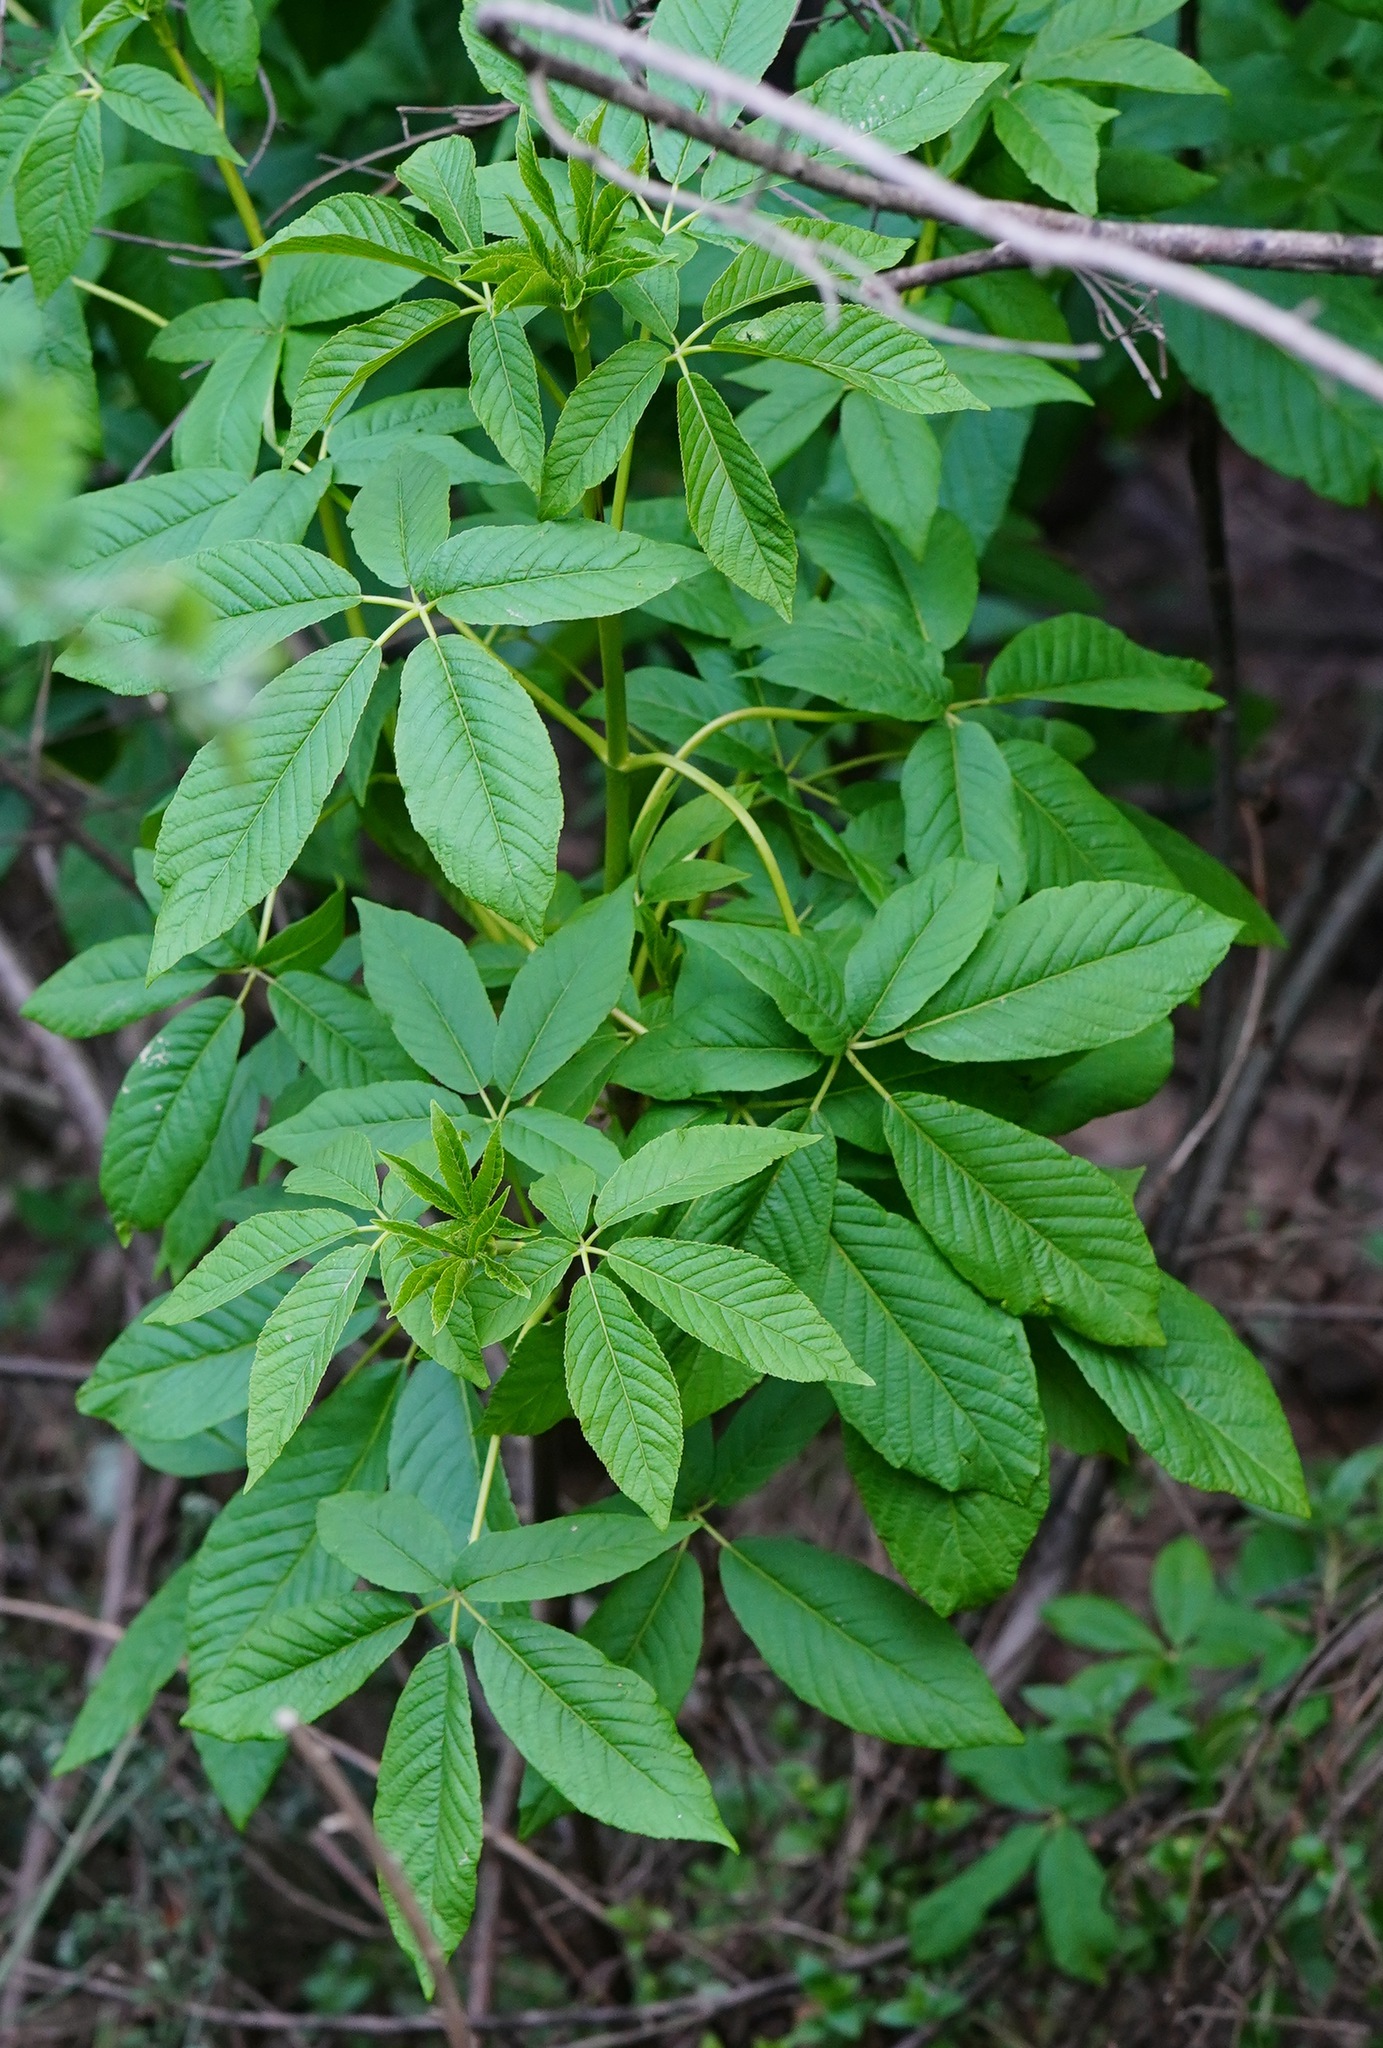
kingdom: Plantae
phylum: Tracheophyta
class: Magnoliopsida
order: Sapindales
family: Sapindaceae
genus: Aesculus
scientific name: Aesculus californica
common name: California buckeye
